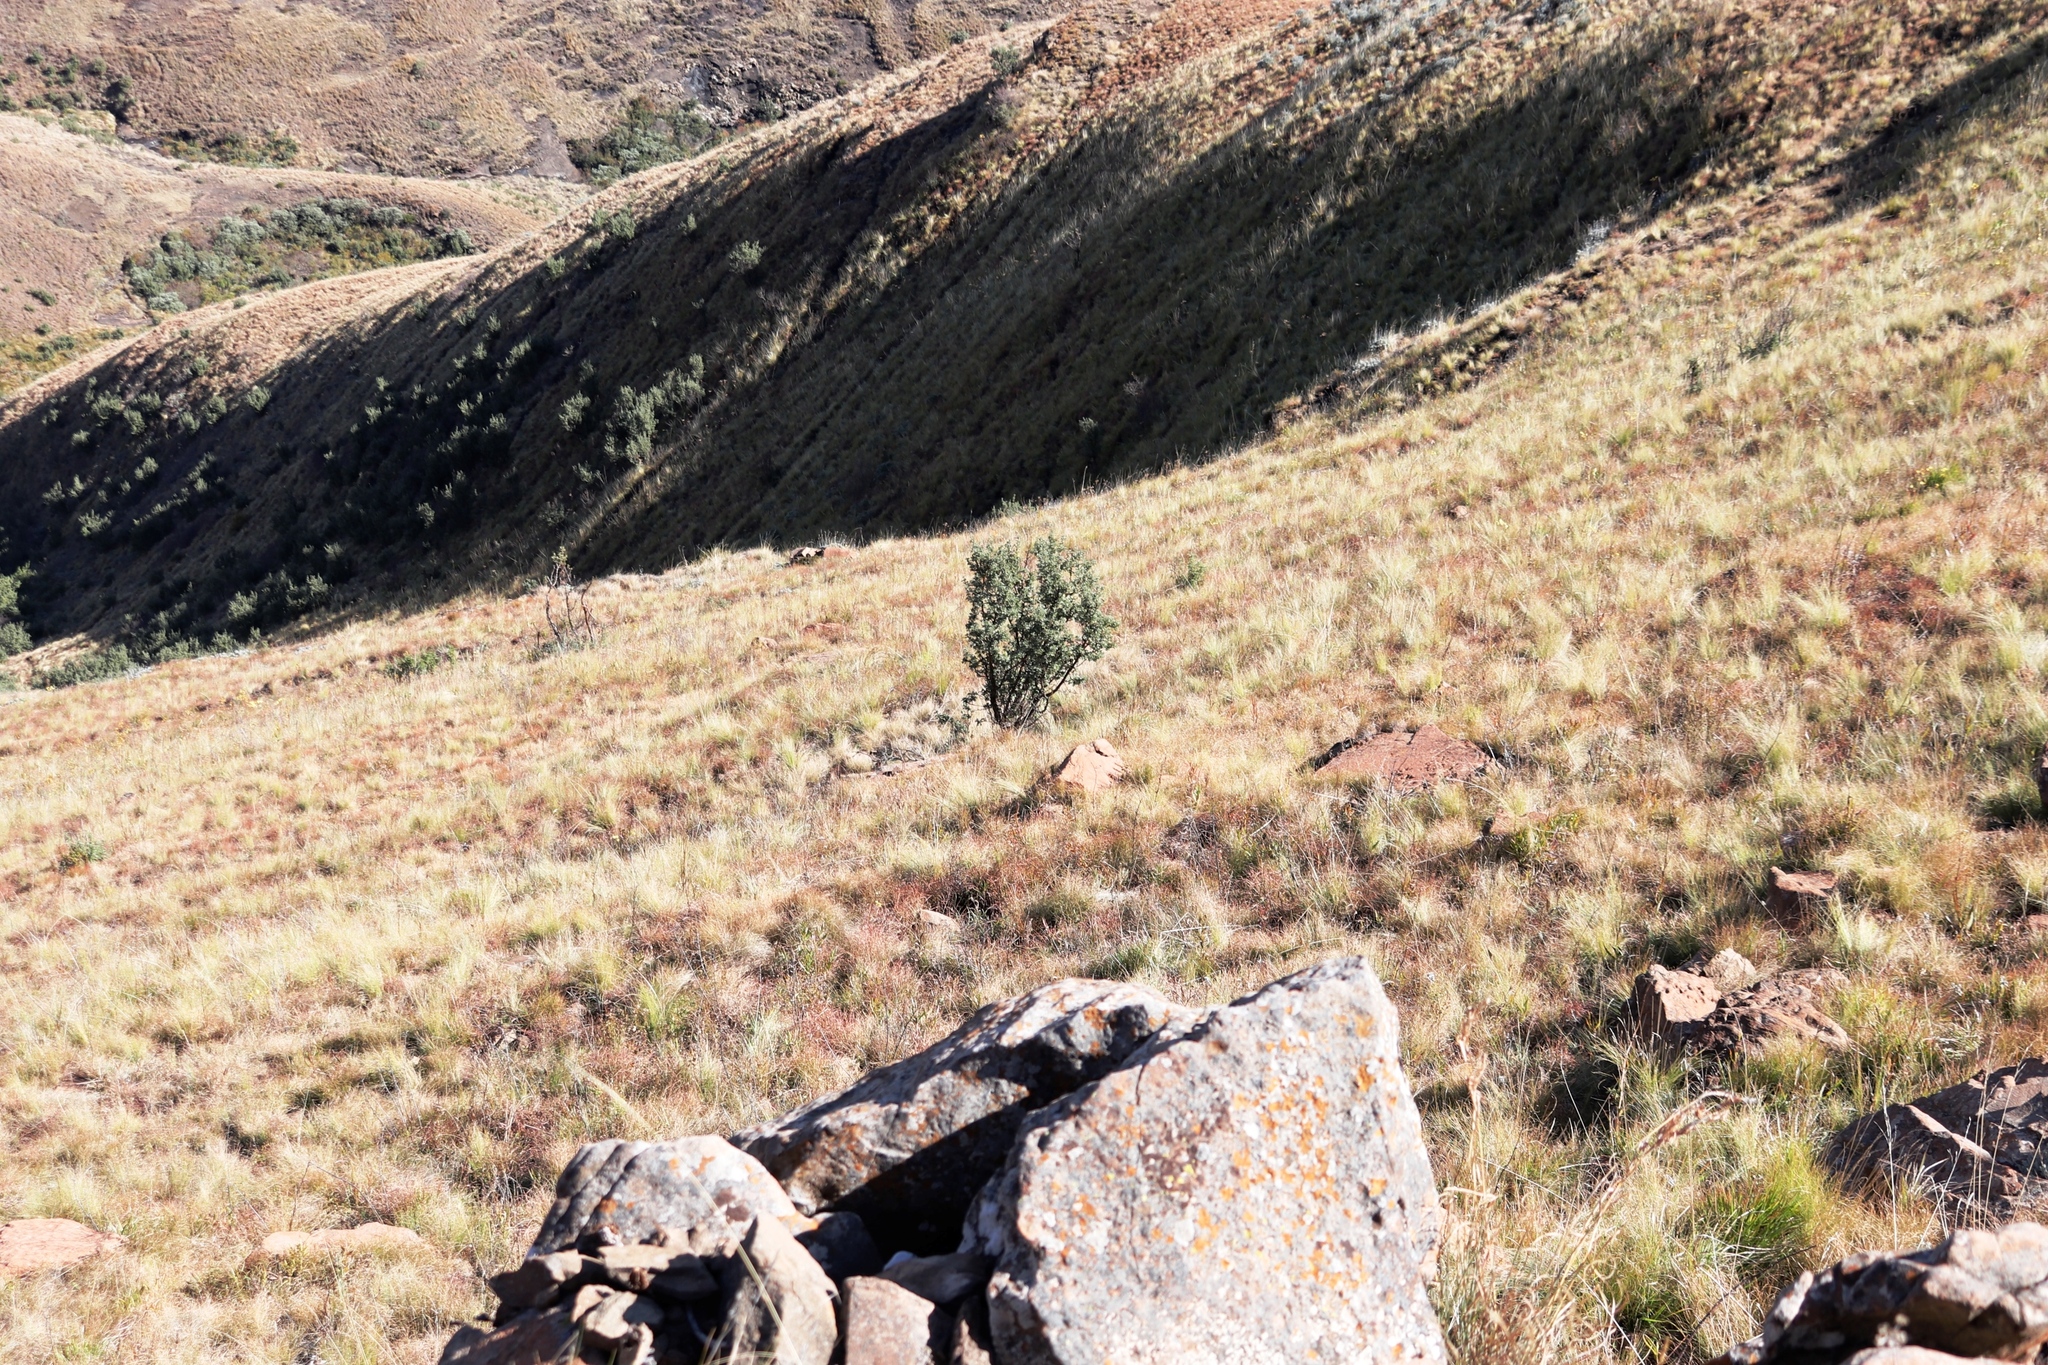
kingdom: Plantae
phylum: Tracheophyta
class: Magnoliopsida
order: Rosales
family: Rosaceae
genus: Leucosidea
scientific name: Leucosidea sericea
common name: Oldwood
